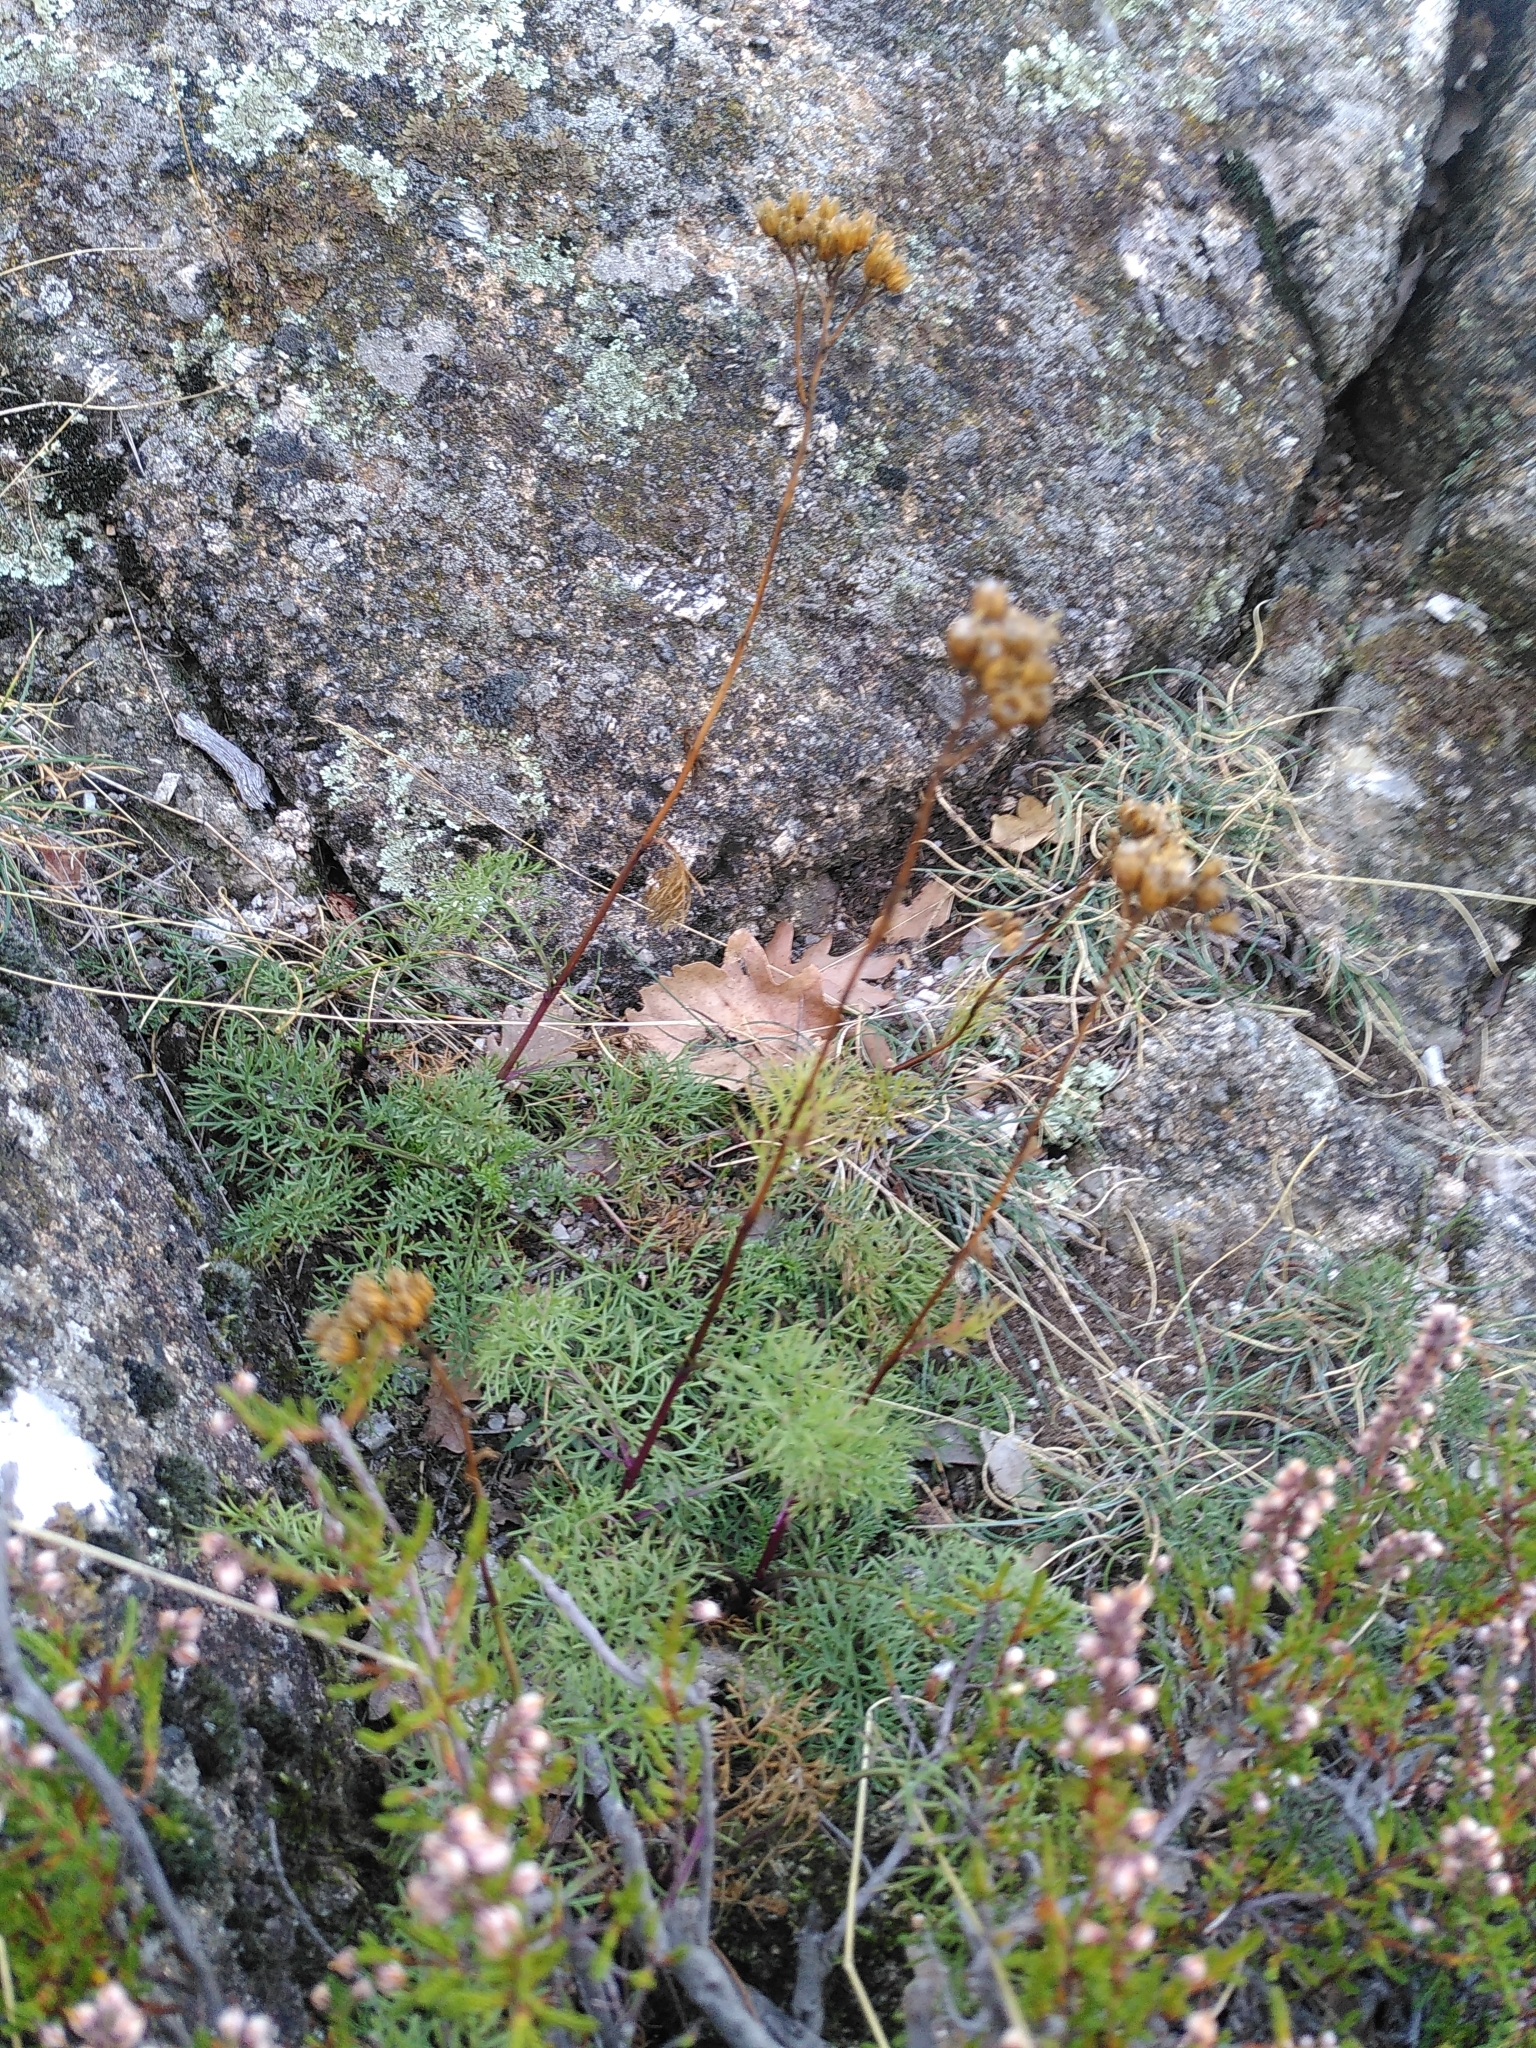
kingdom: Plantae
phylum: Tracheophyta
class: Magnoliopsida
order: Asterales
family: Asteraceae
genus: Jacobaea
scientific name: Jacobaea adonidifolia
